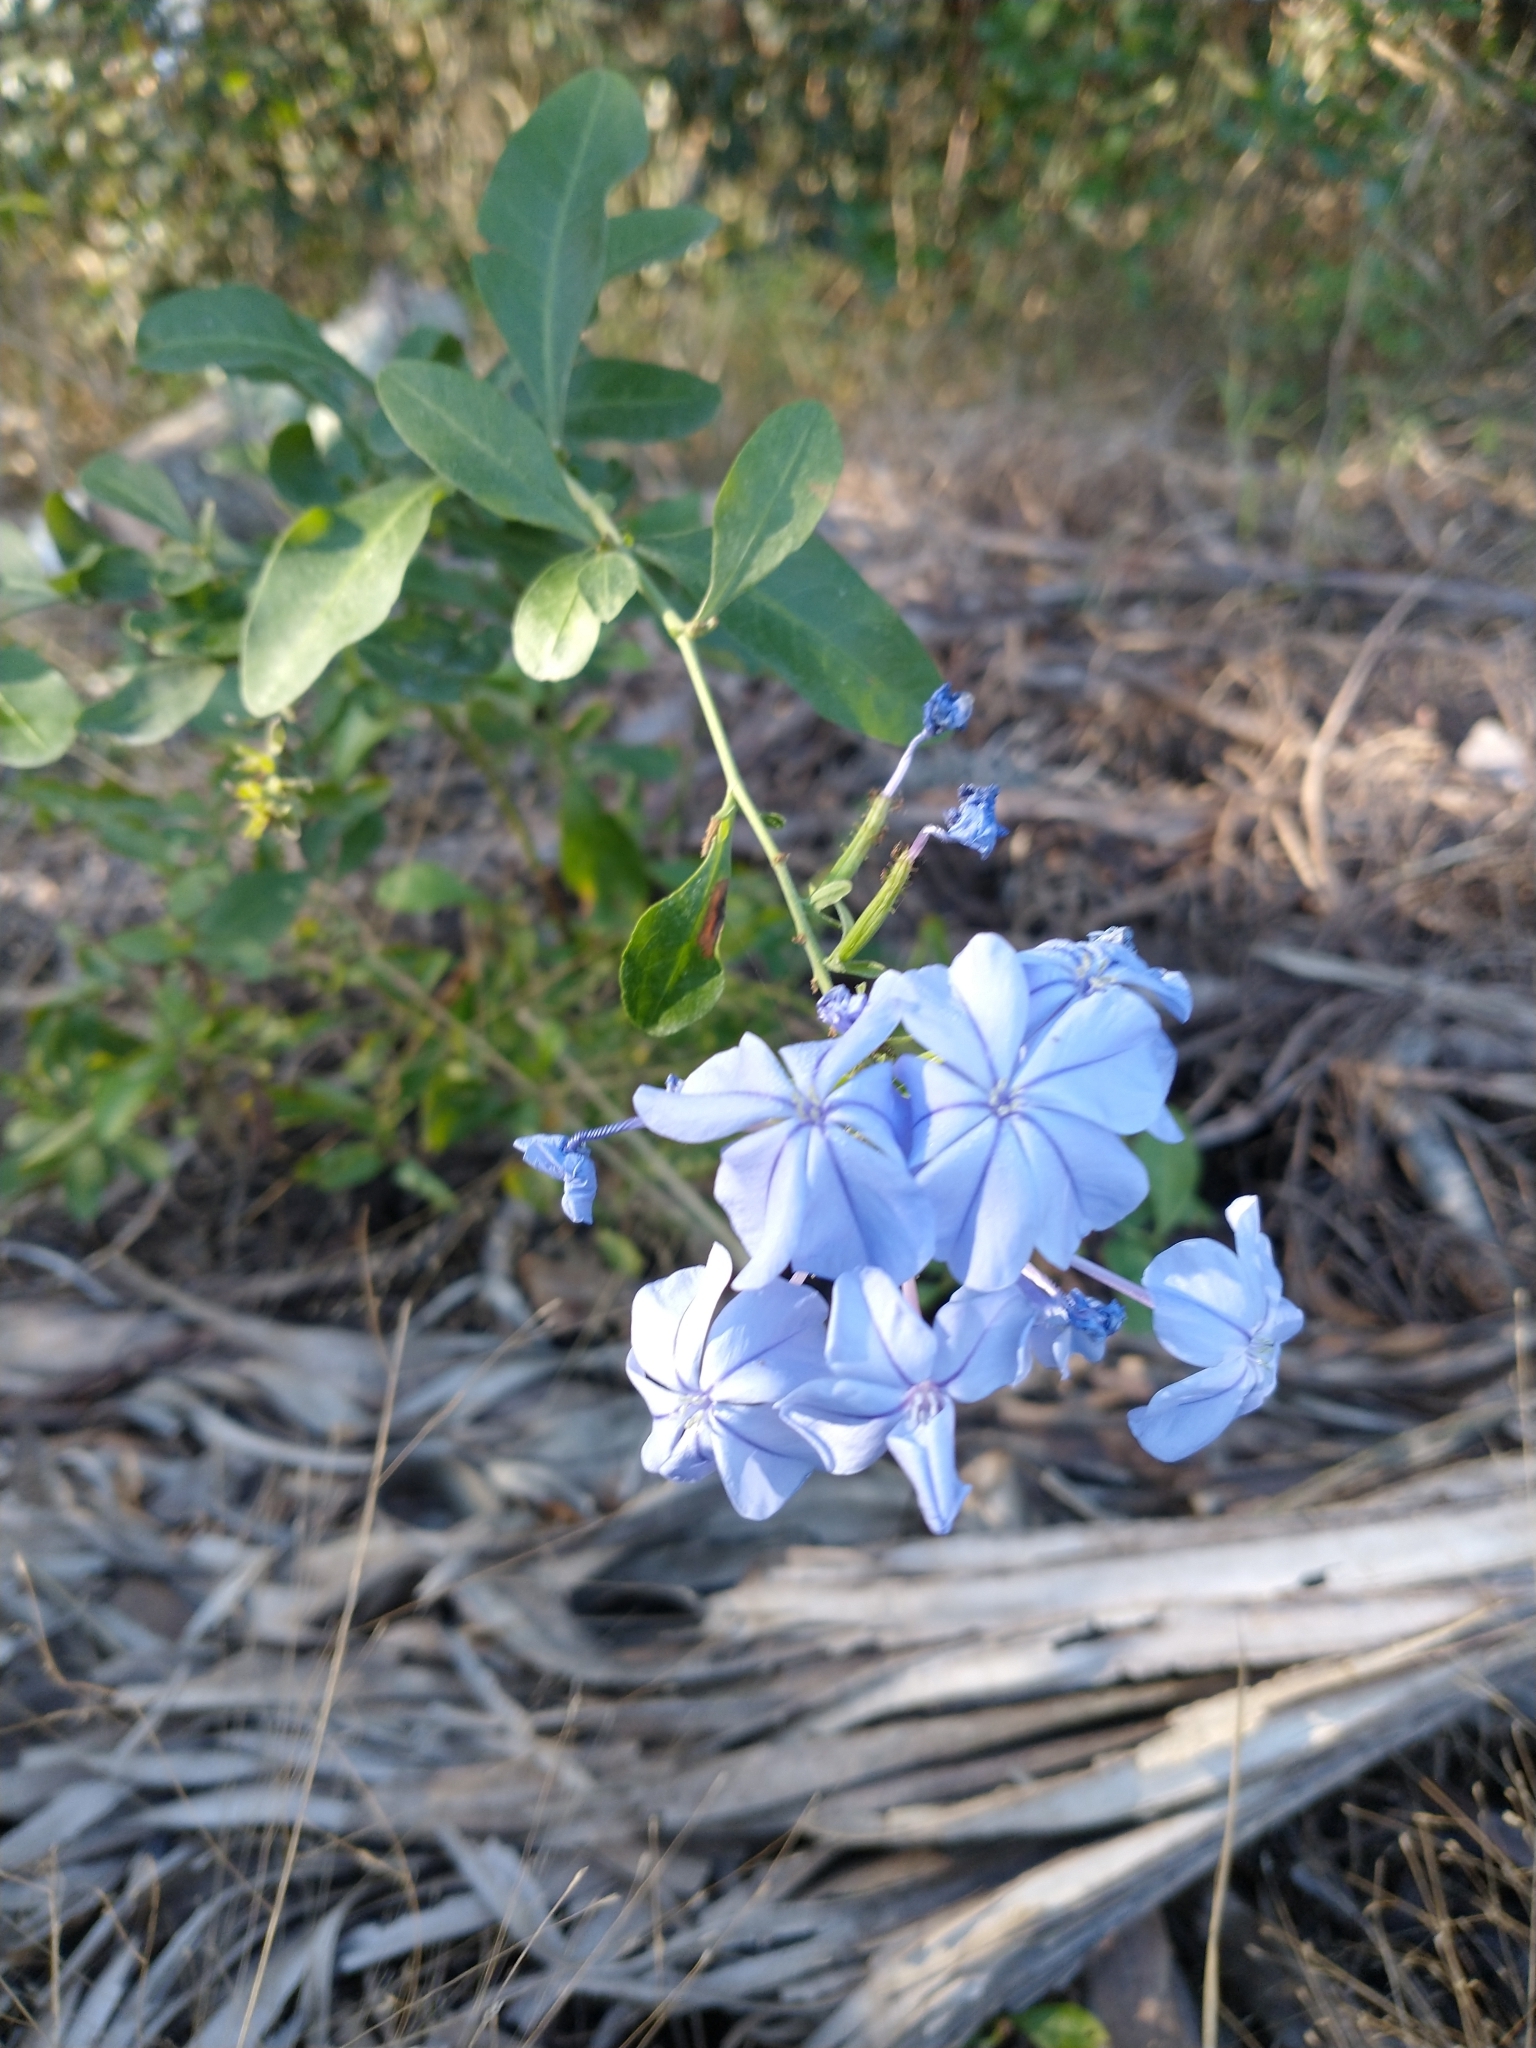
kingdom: Plantae
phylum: Tracheophyta
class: Magnoliopsida
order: Caryophyllales
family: Plumbaginaceae
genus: Plumbago
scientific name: Plumbago auriculata
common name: Cape leadwort
